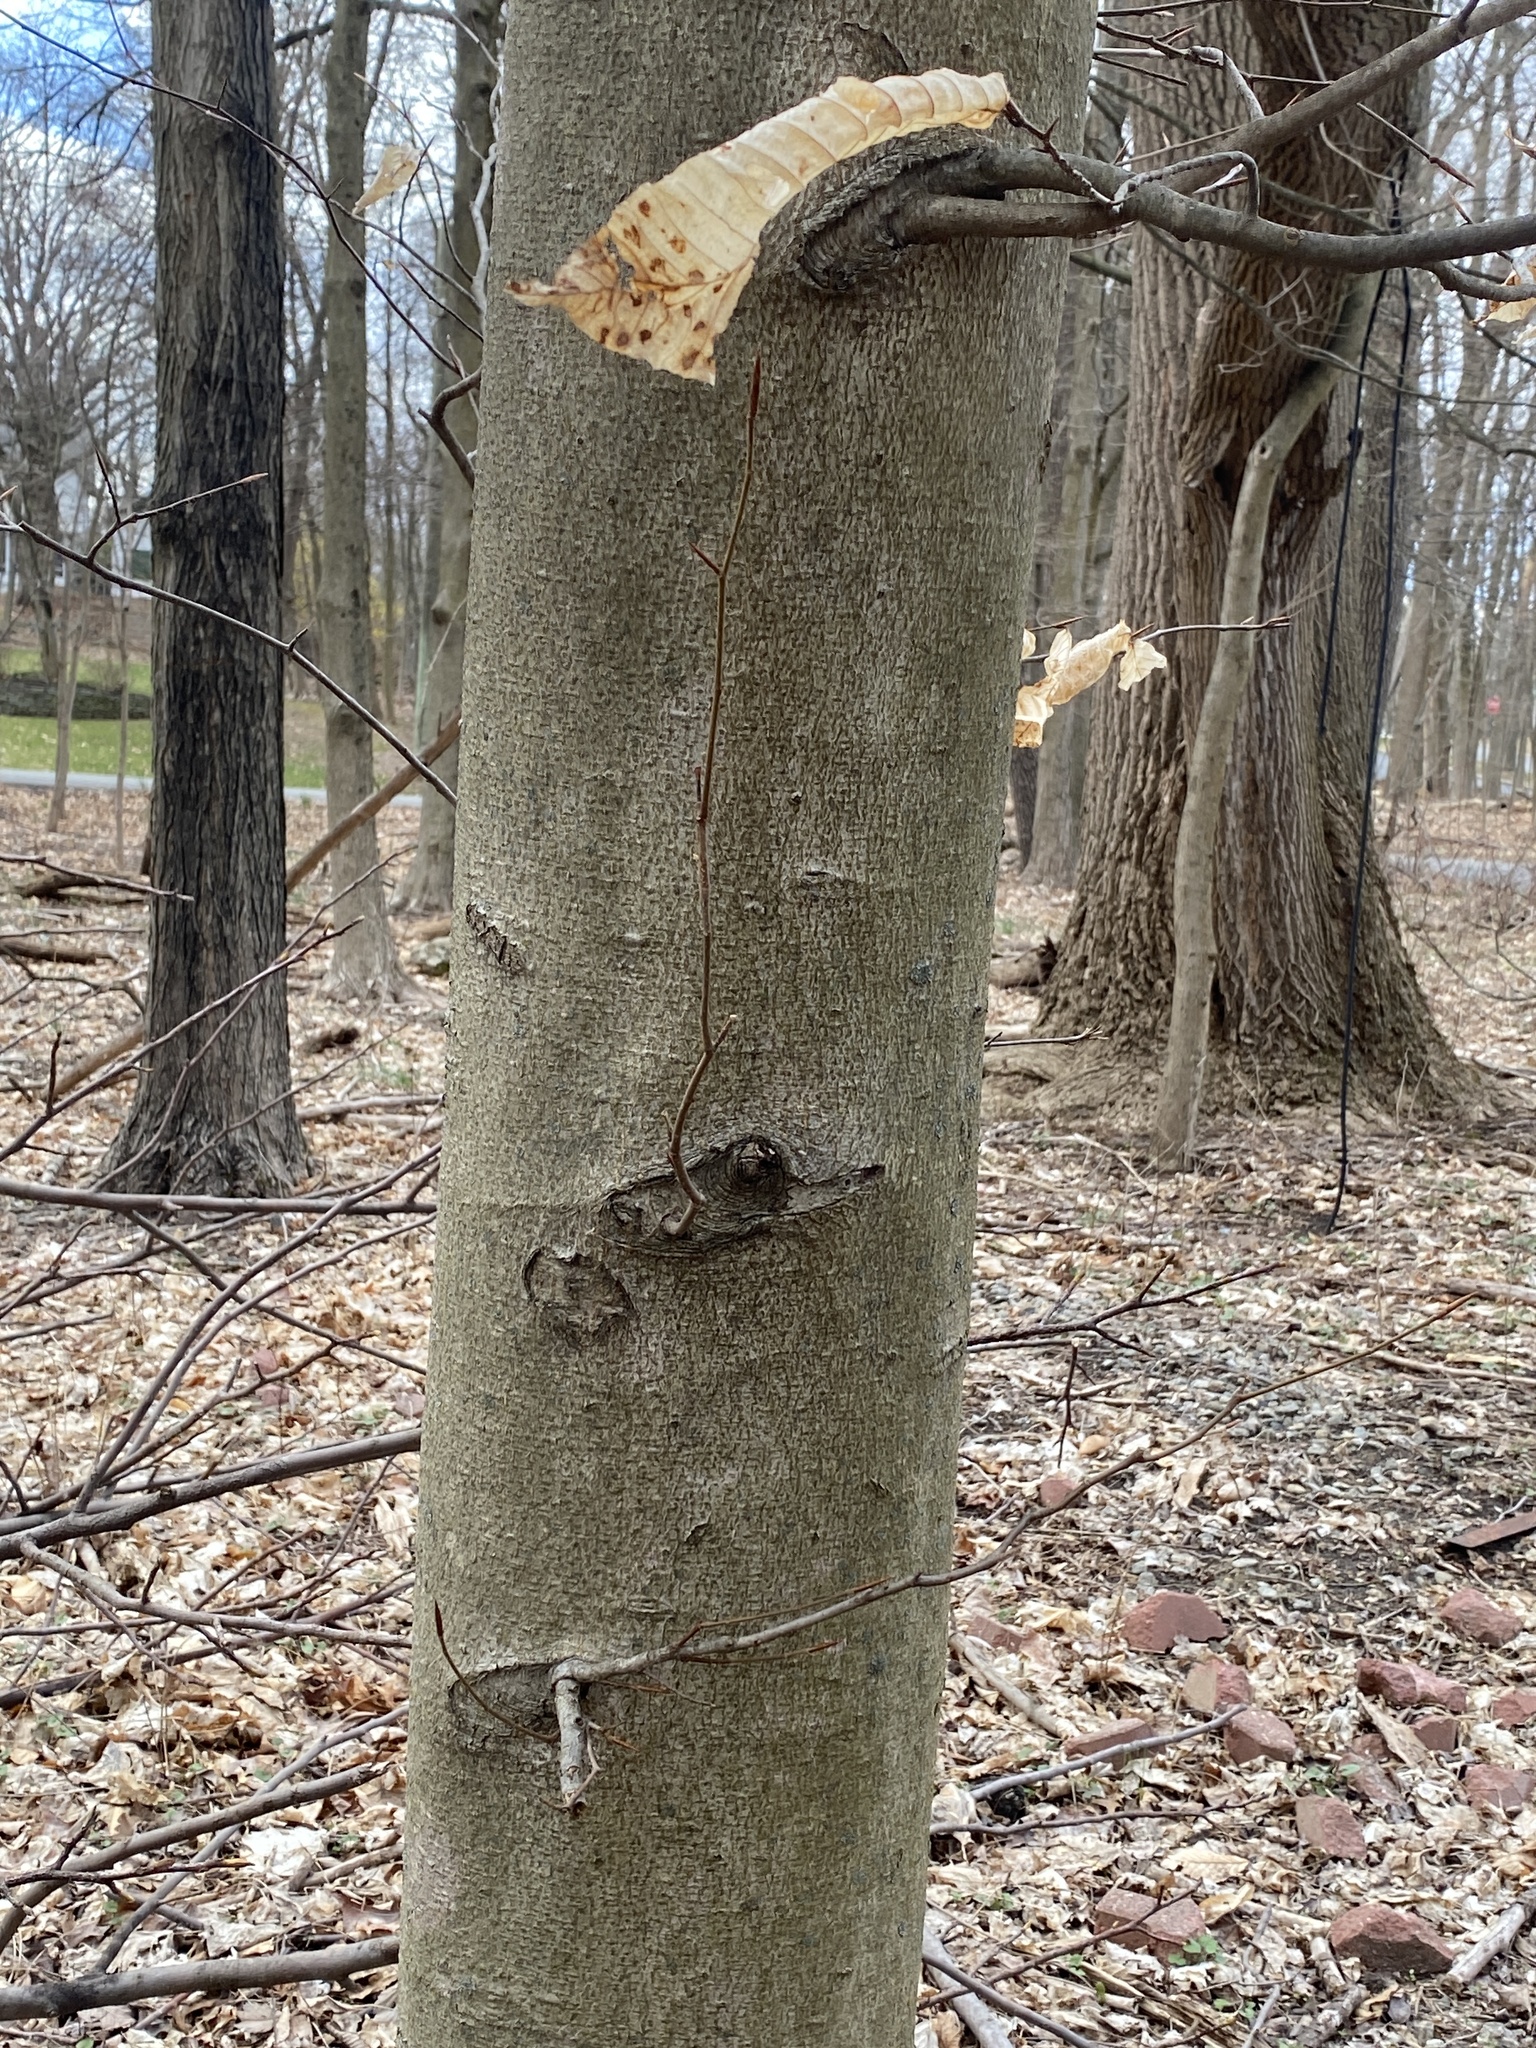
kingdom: Plantae
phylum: Tracheophyta
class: Magnoliopsida
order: Fagales
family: Fagaceae
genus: Fagus
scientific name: Fagus grandifolia
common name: American beech
